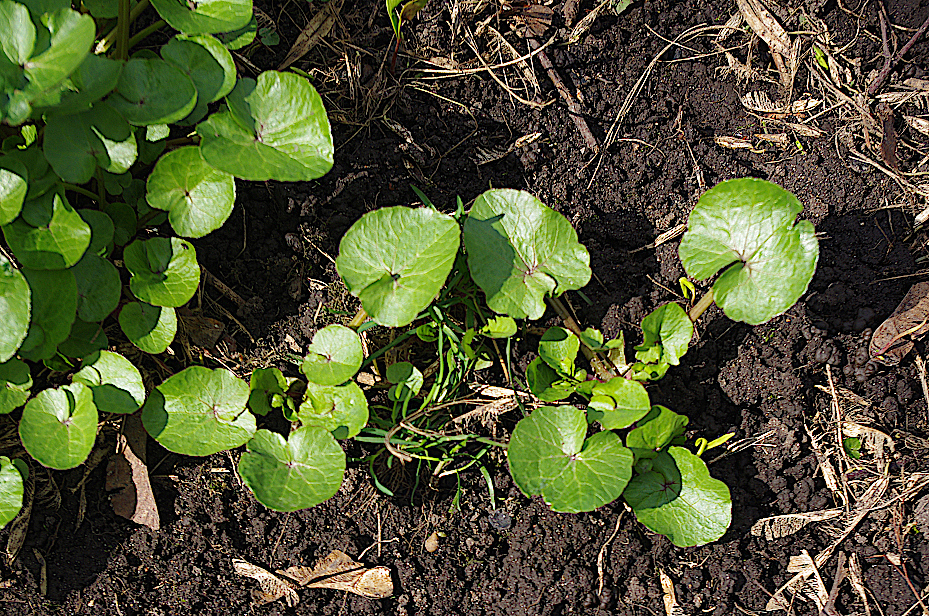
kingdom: Plantae
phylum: Tracheophyta
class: Magnoliopsida
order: Ranunculales
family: Ranunculaceae
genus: Ficaria
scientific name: Ficaria verna
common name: Lesser celandine
